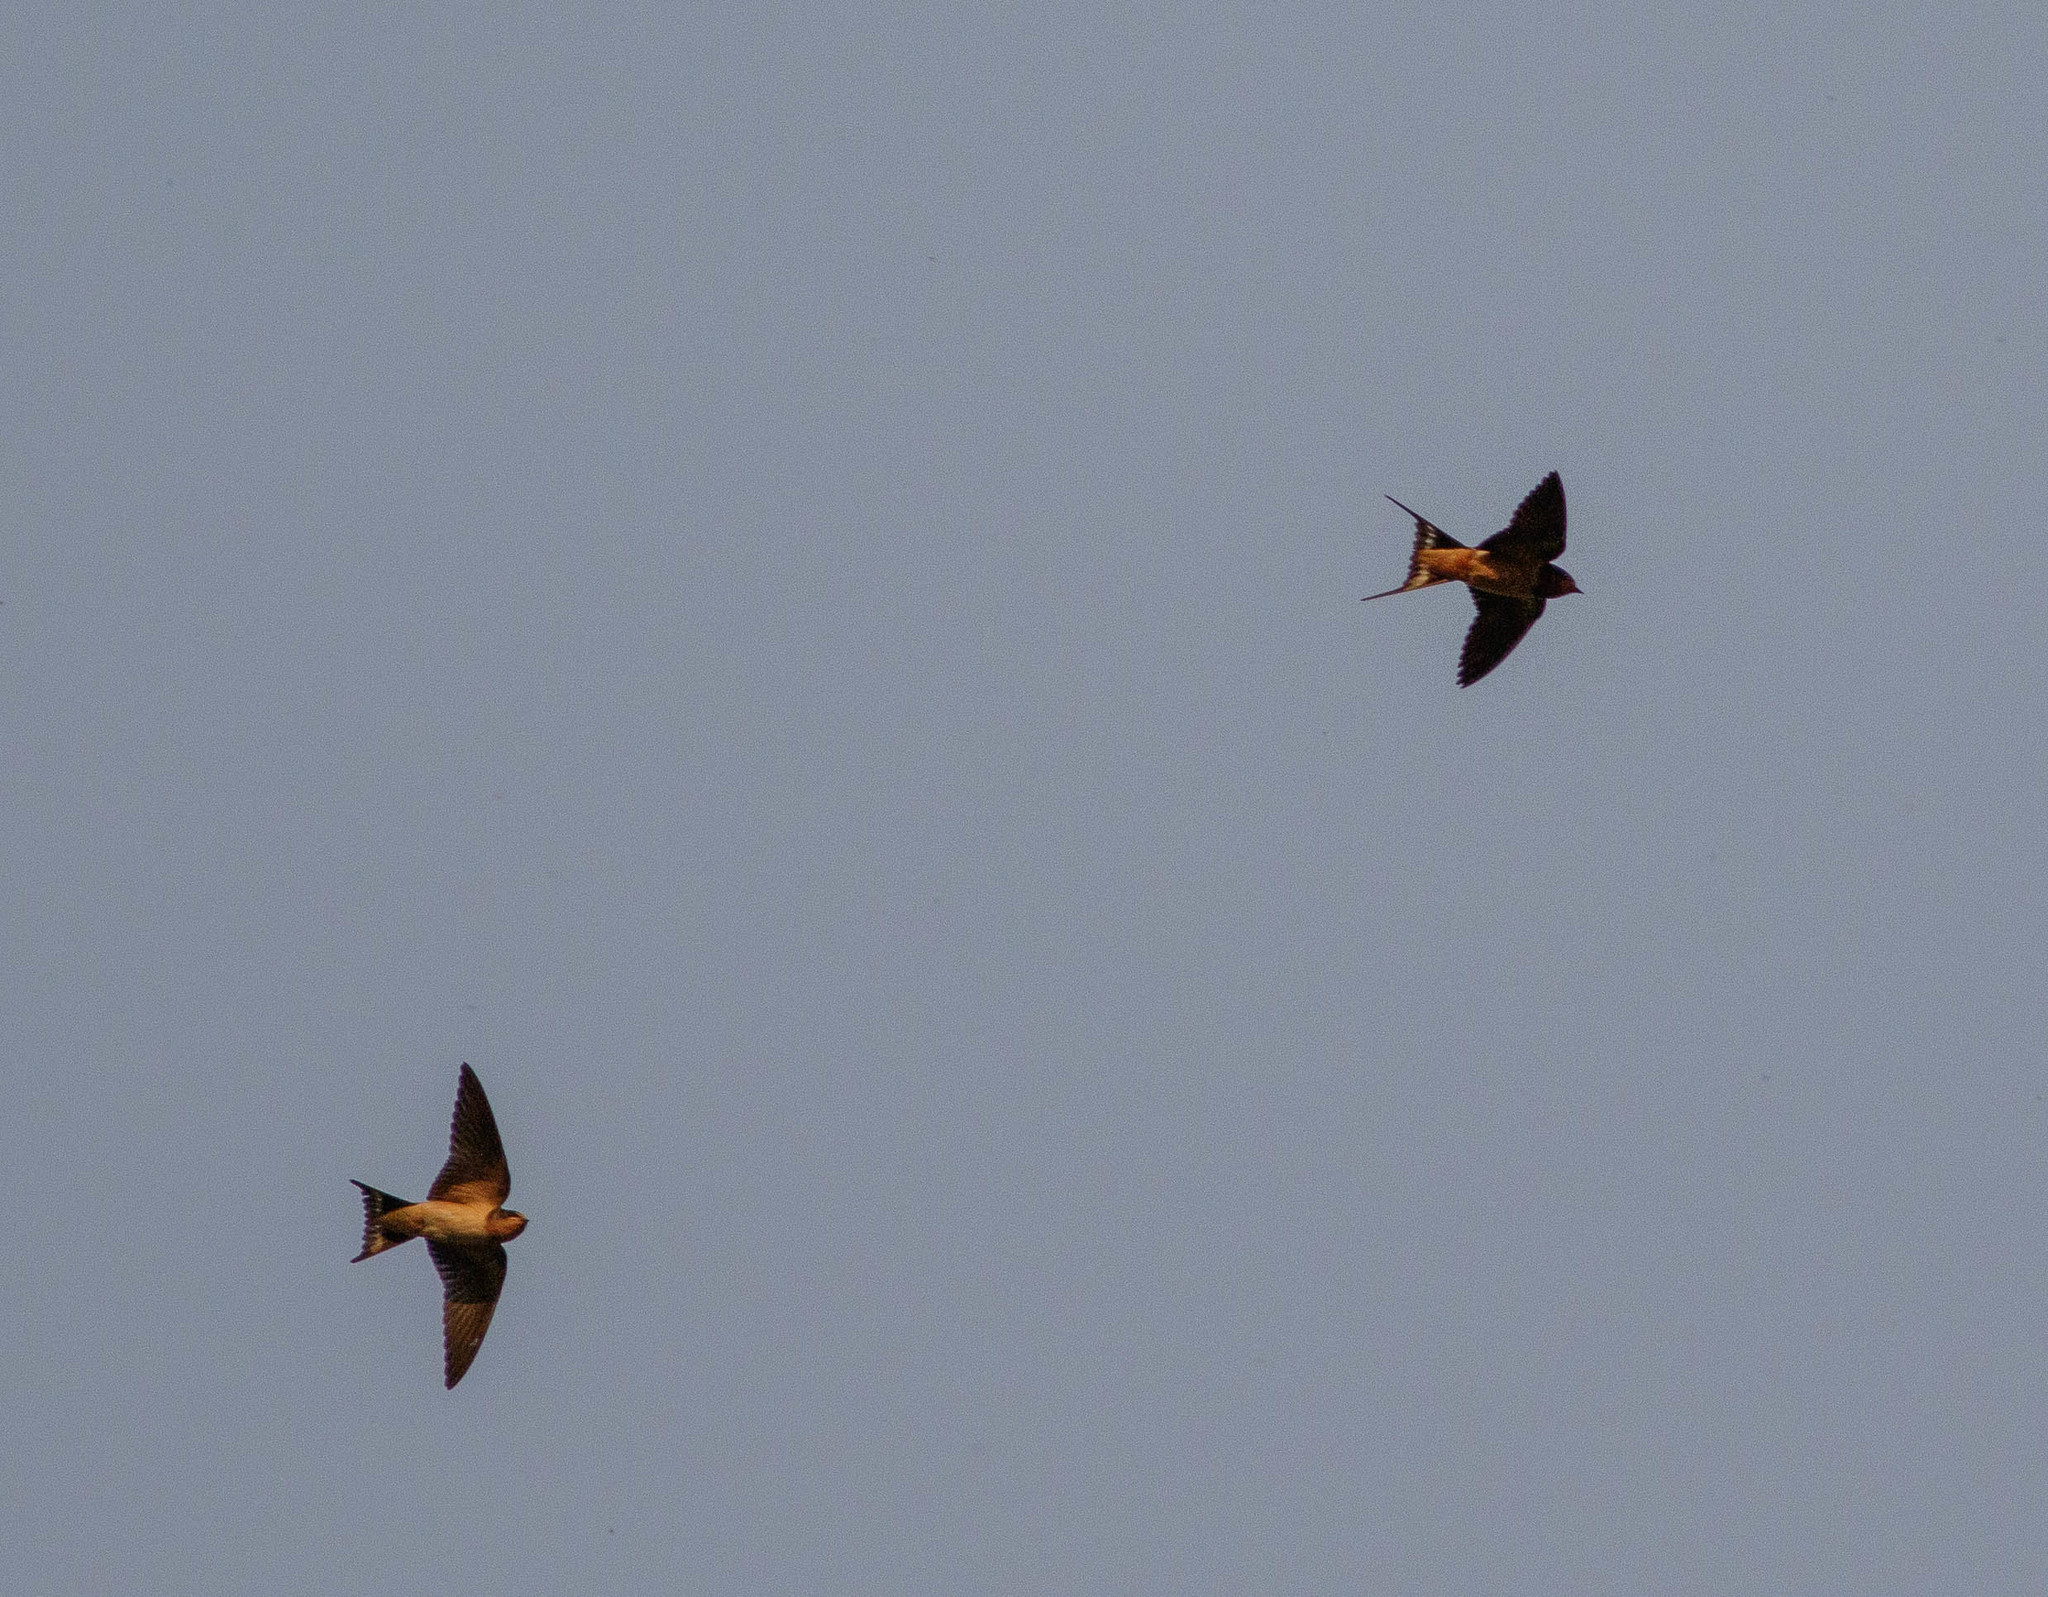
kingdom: Animalia
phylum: Chordata
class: Aves
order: Passeriformes
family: Hirundinidae
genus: Hirundo
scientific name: Hirundo rustica
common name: Barn swallow
